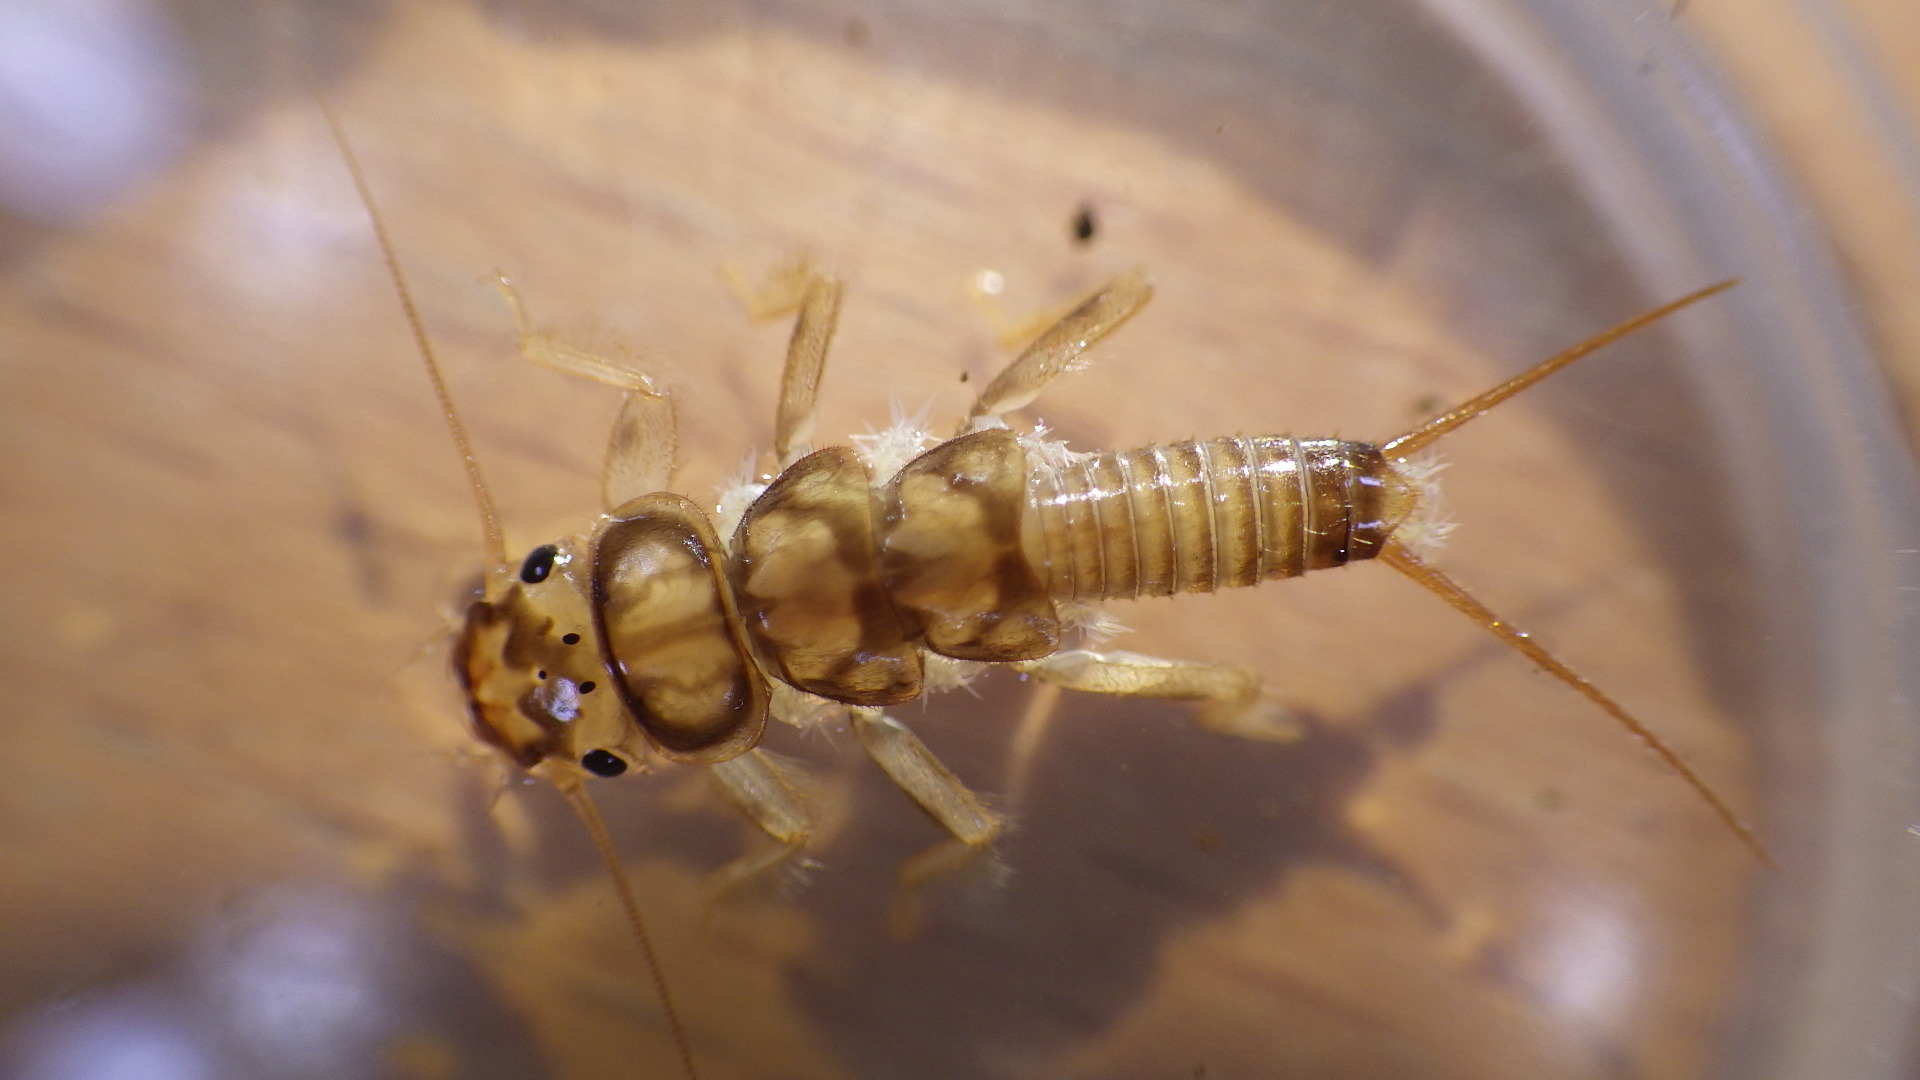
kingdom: Animalia
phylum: Arthropoda
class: Insecta
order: Plecoptera
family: Perlidae
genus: Eccoptura
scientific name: Eccoptura xanthenes
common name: Yellow stone
